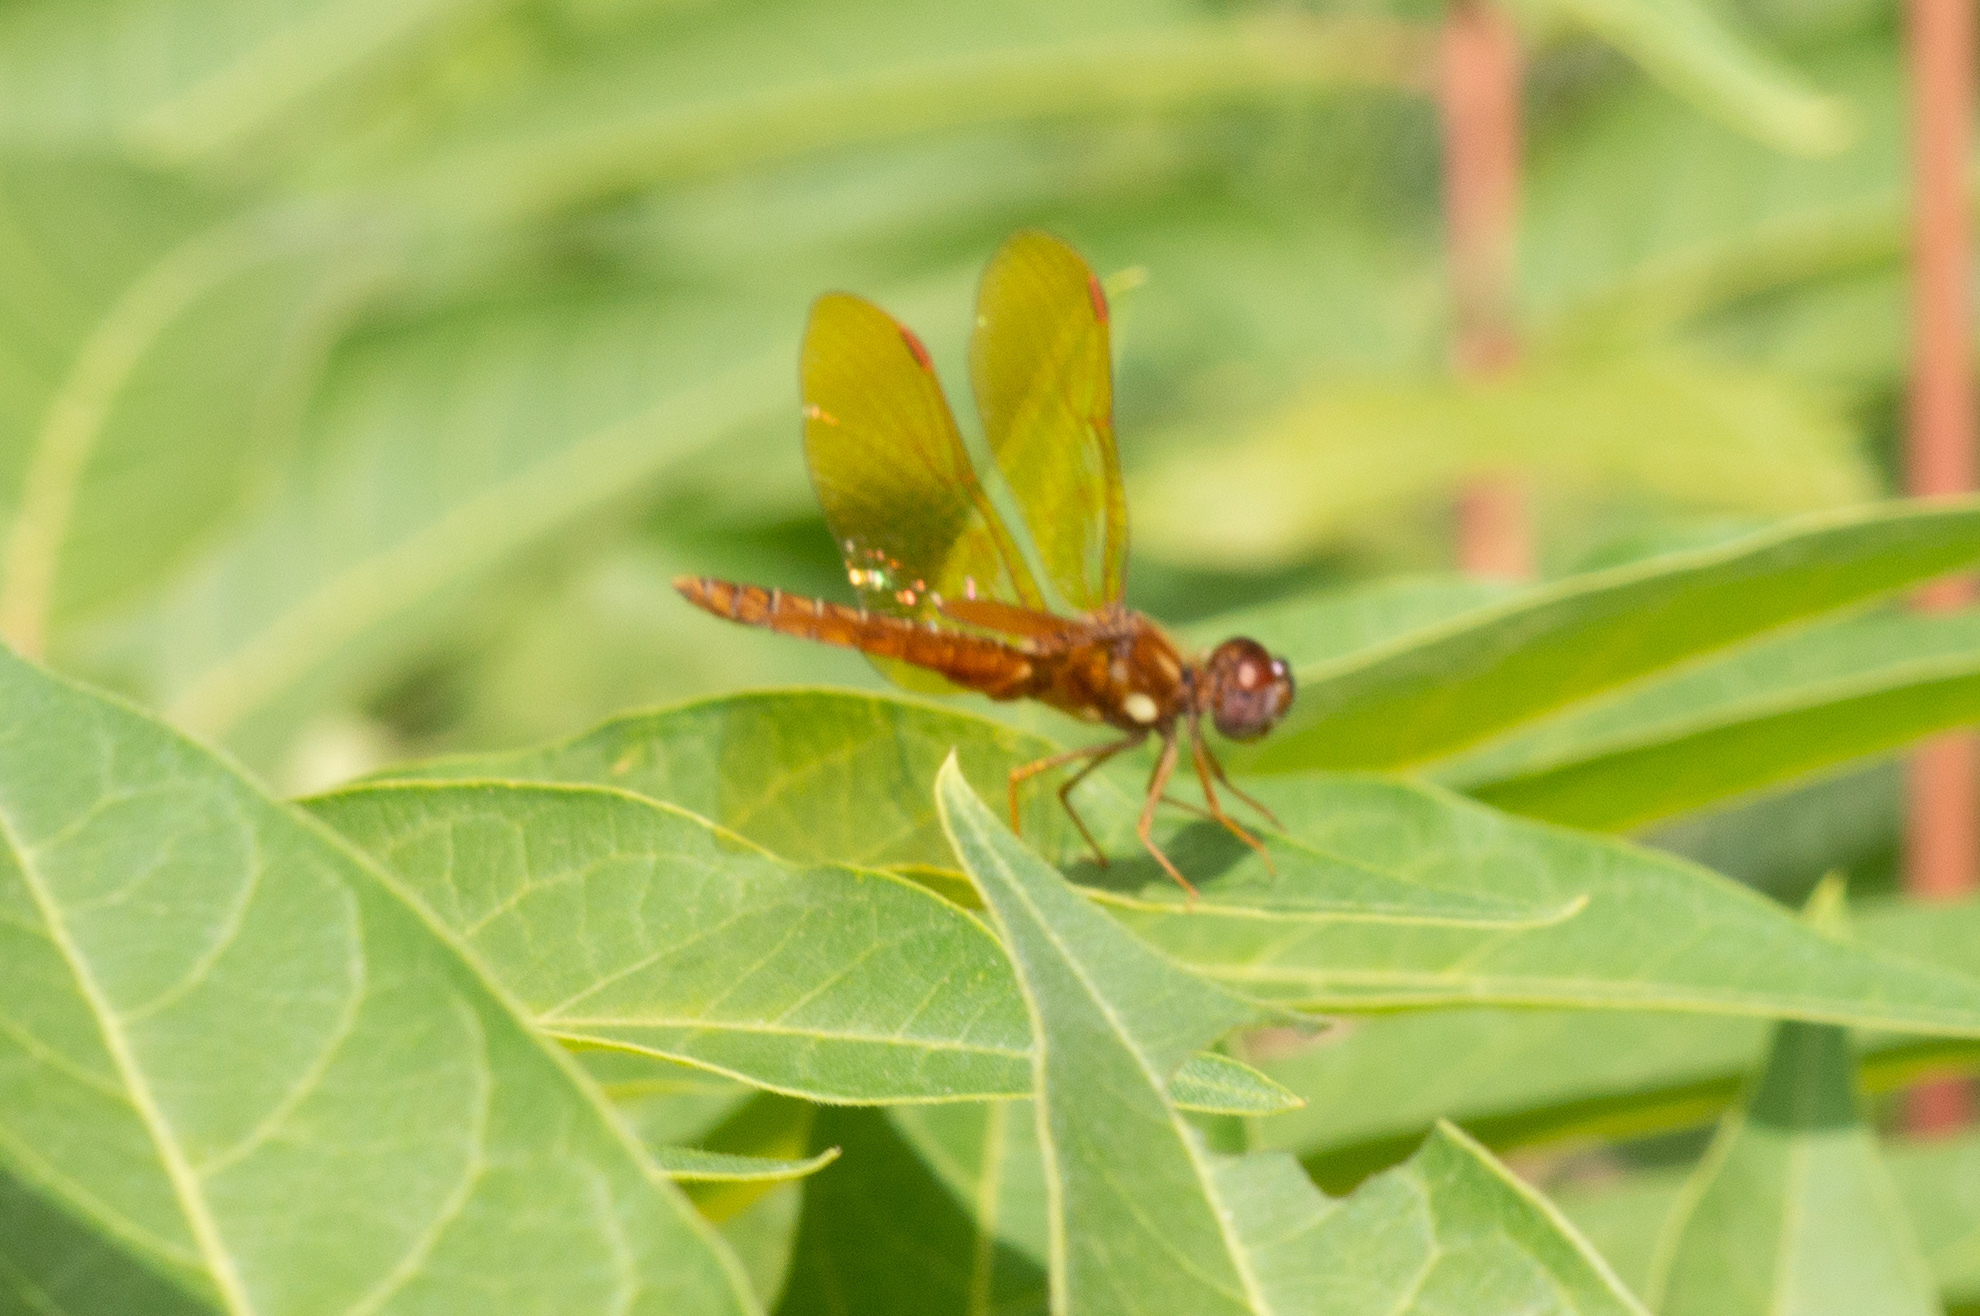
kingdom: Animalia
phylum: Arthropoda
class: Insecta
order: Odonata
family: Libellulidae
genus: Perithemis
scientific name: Perithemis tenera
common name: Eastern amberwing
